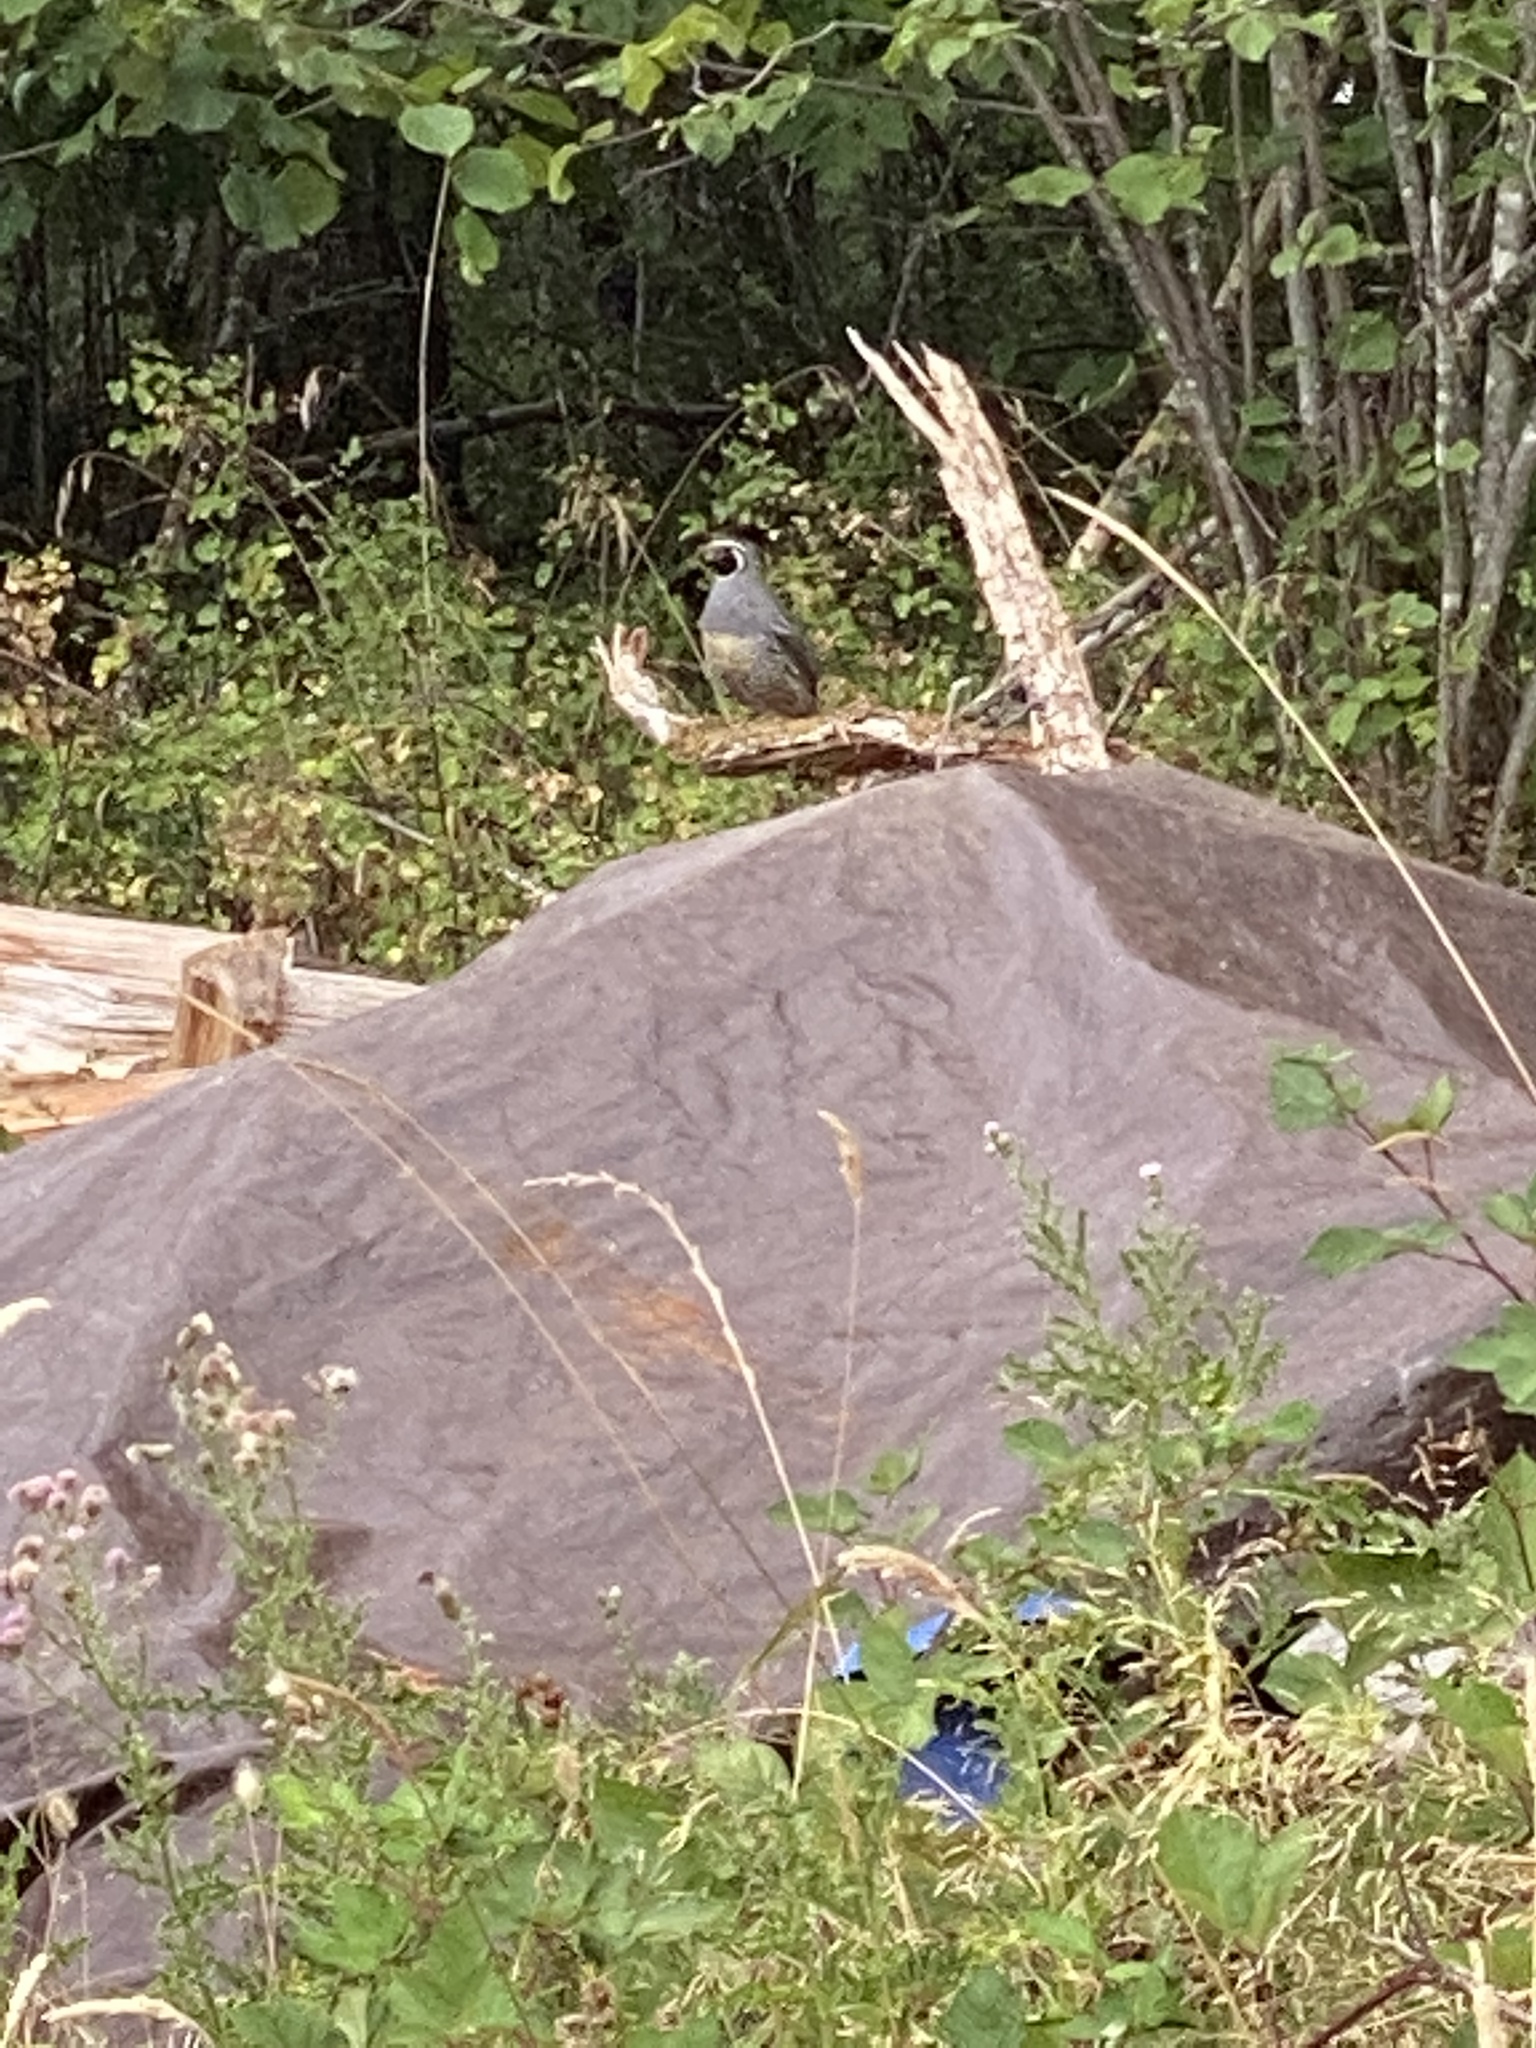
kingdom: Animalia
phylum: Chordata
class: Aves
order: Galliformes
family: Odontophoridae
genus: Callipepla
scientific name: Callipepla californica
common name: California quail
